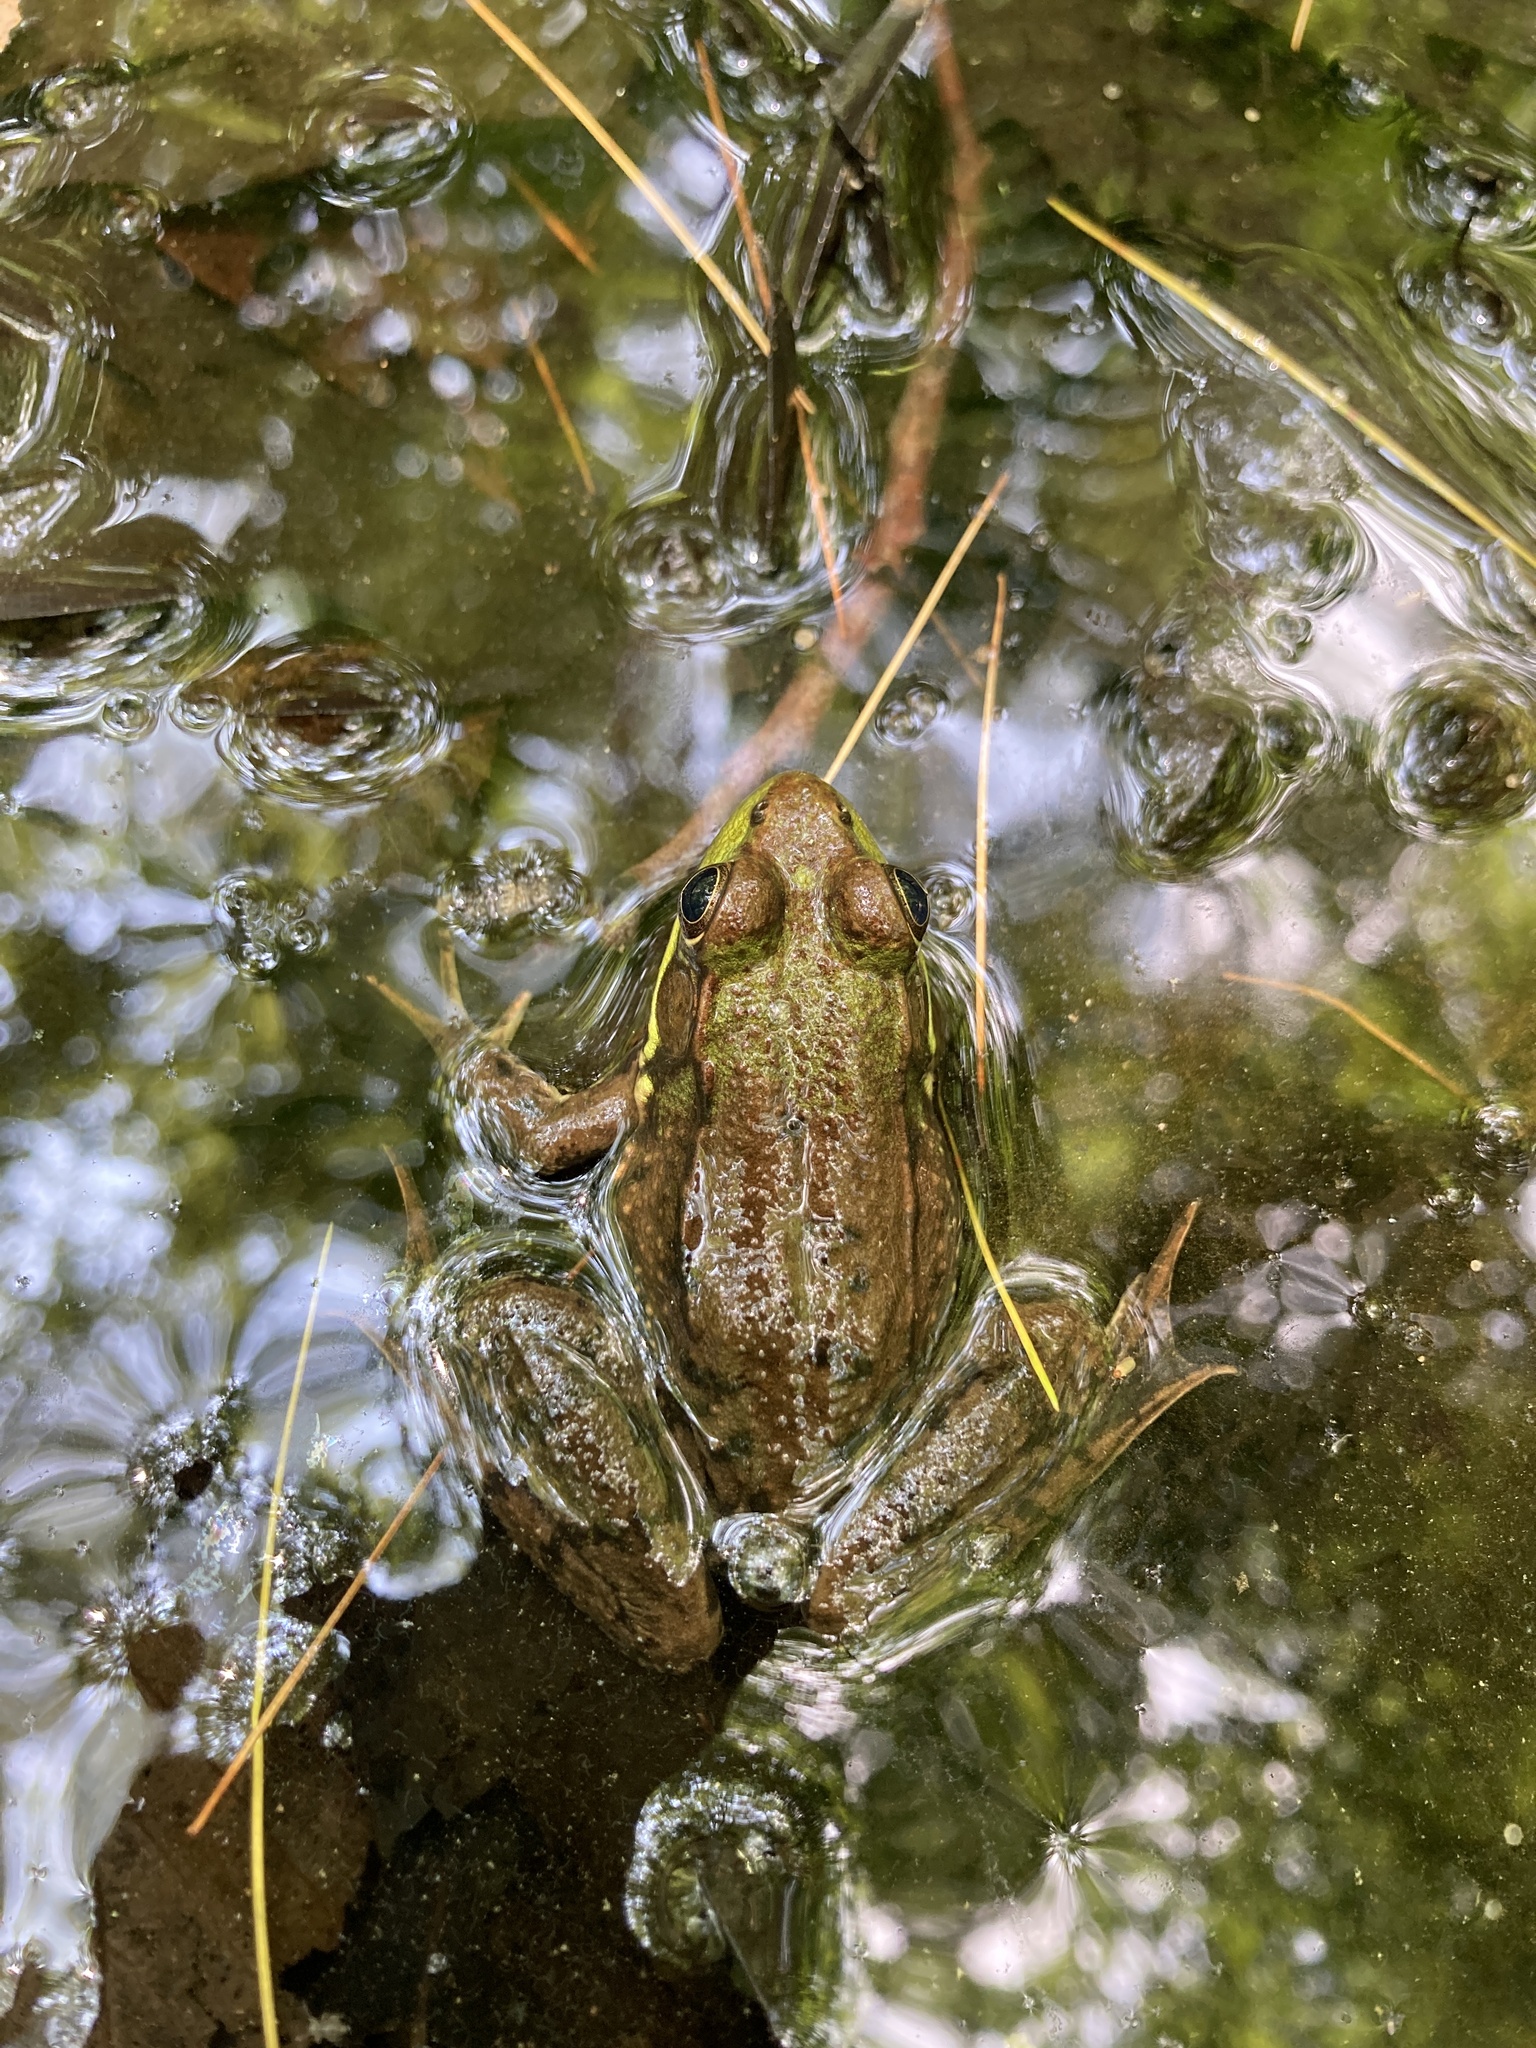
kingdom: Animalia
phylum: Chordata
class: Amphibia
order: Anura
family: Ranidae
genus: Lithobates
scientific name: Lithobates clamitans
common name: Green frog
